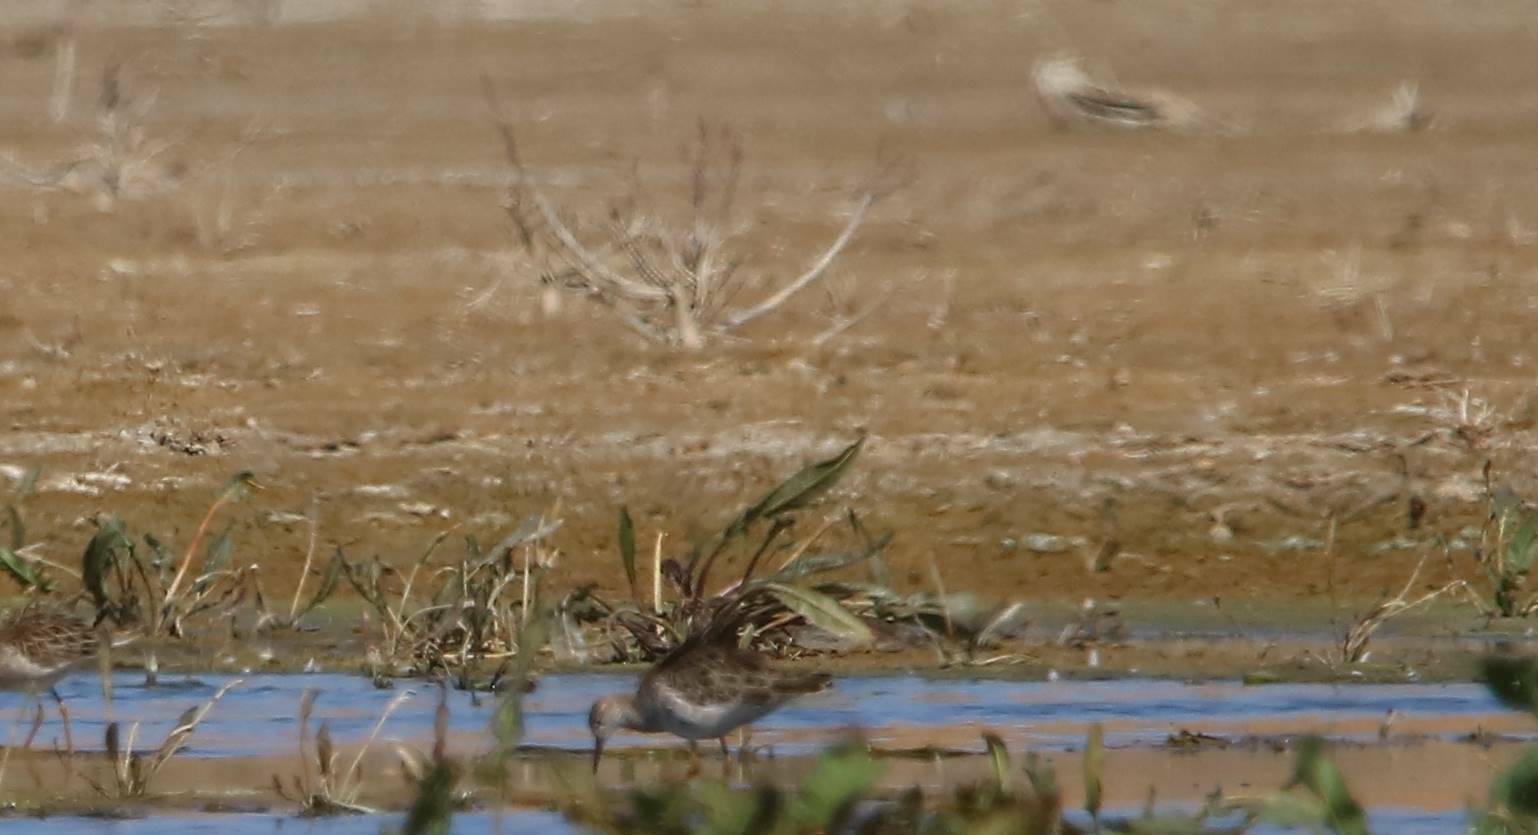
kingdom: Animalia
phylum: Chordata
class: Aves
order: Charadriiformes
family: Scolopacidae
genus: Calidris
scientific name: Calidris pugnax
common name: Ruff
